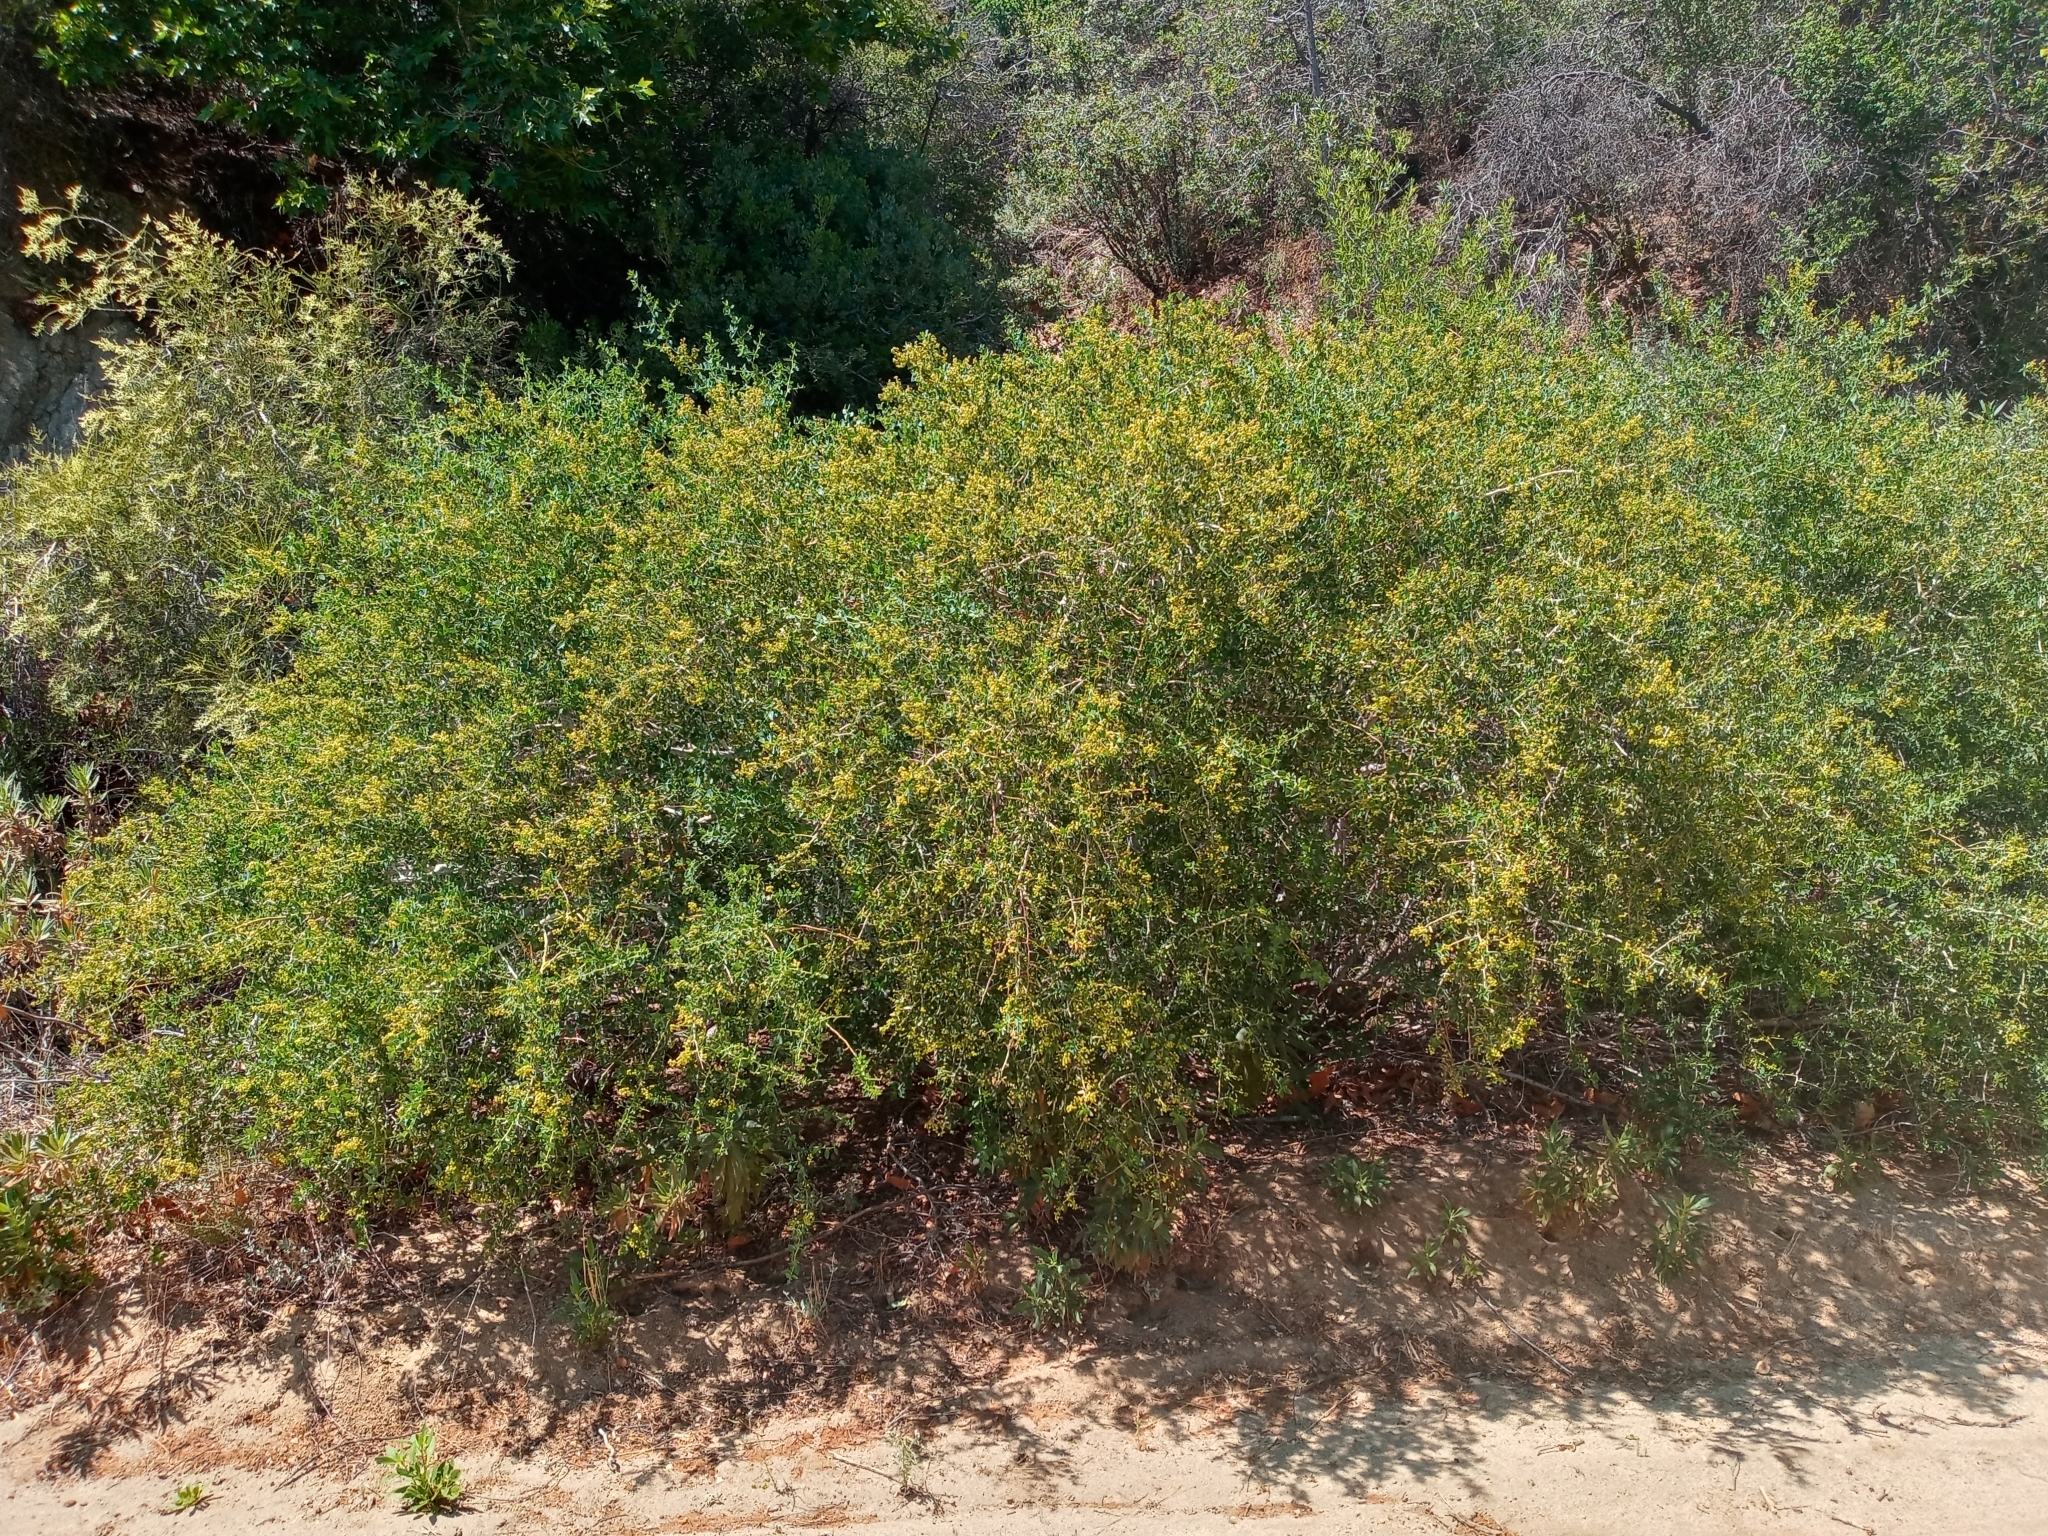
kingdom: Plantae
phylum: Tracheophyta
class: Magnoliopsida
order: Rosales
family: Rhamnaceae
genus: Ceanothus
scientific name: Ceanothus leucodermis
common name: Chaparral whitethorn
